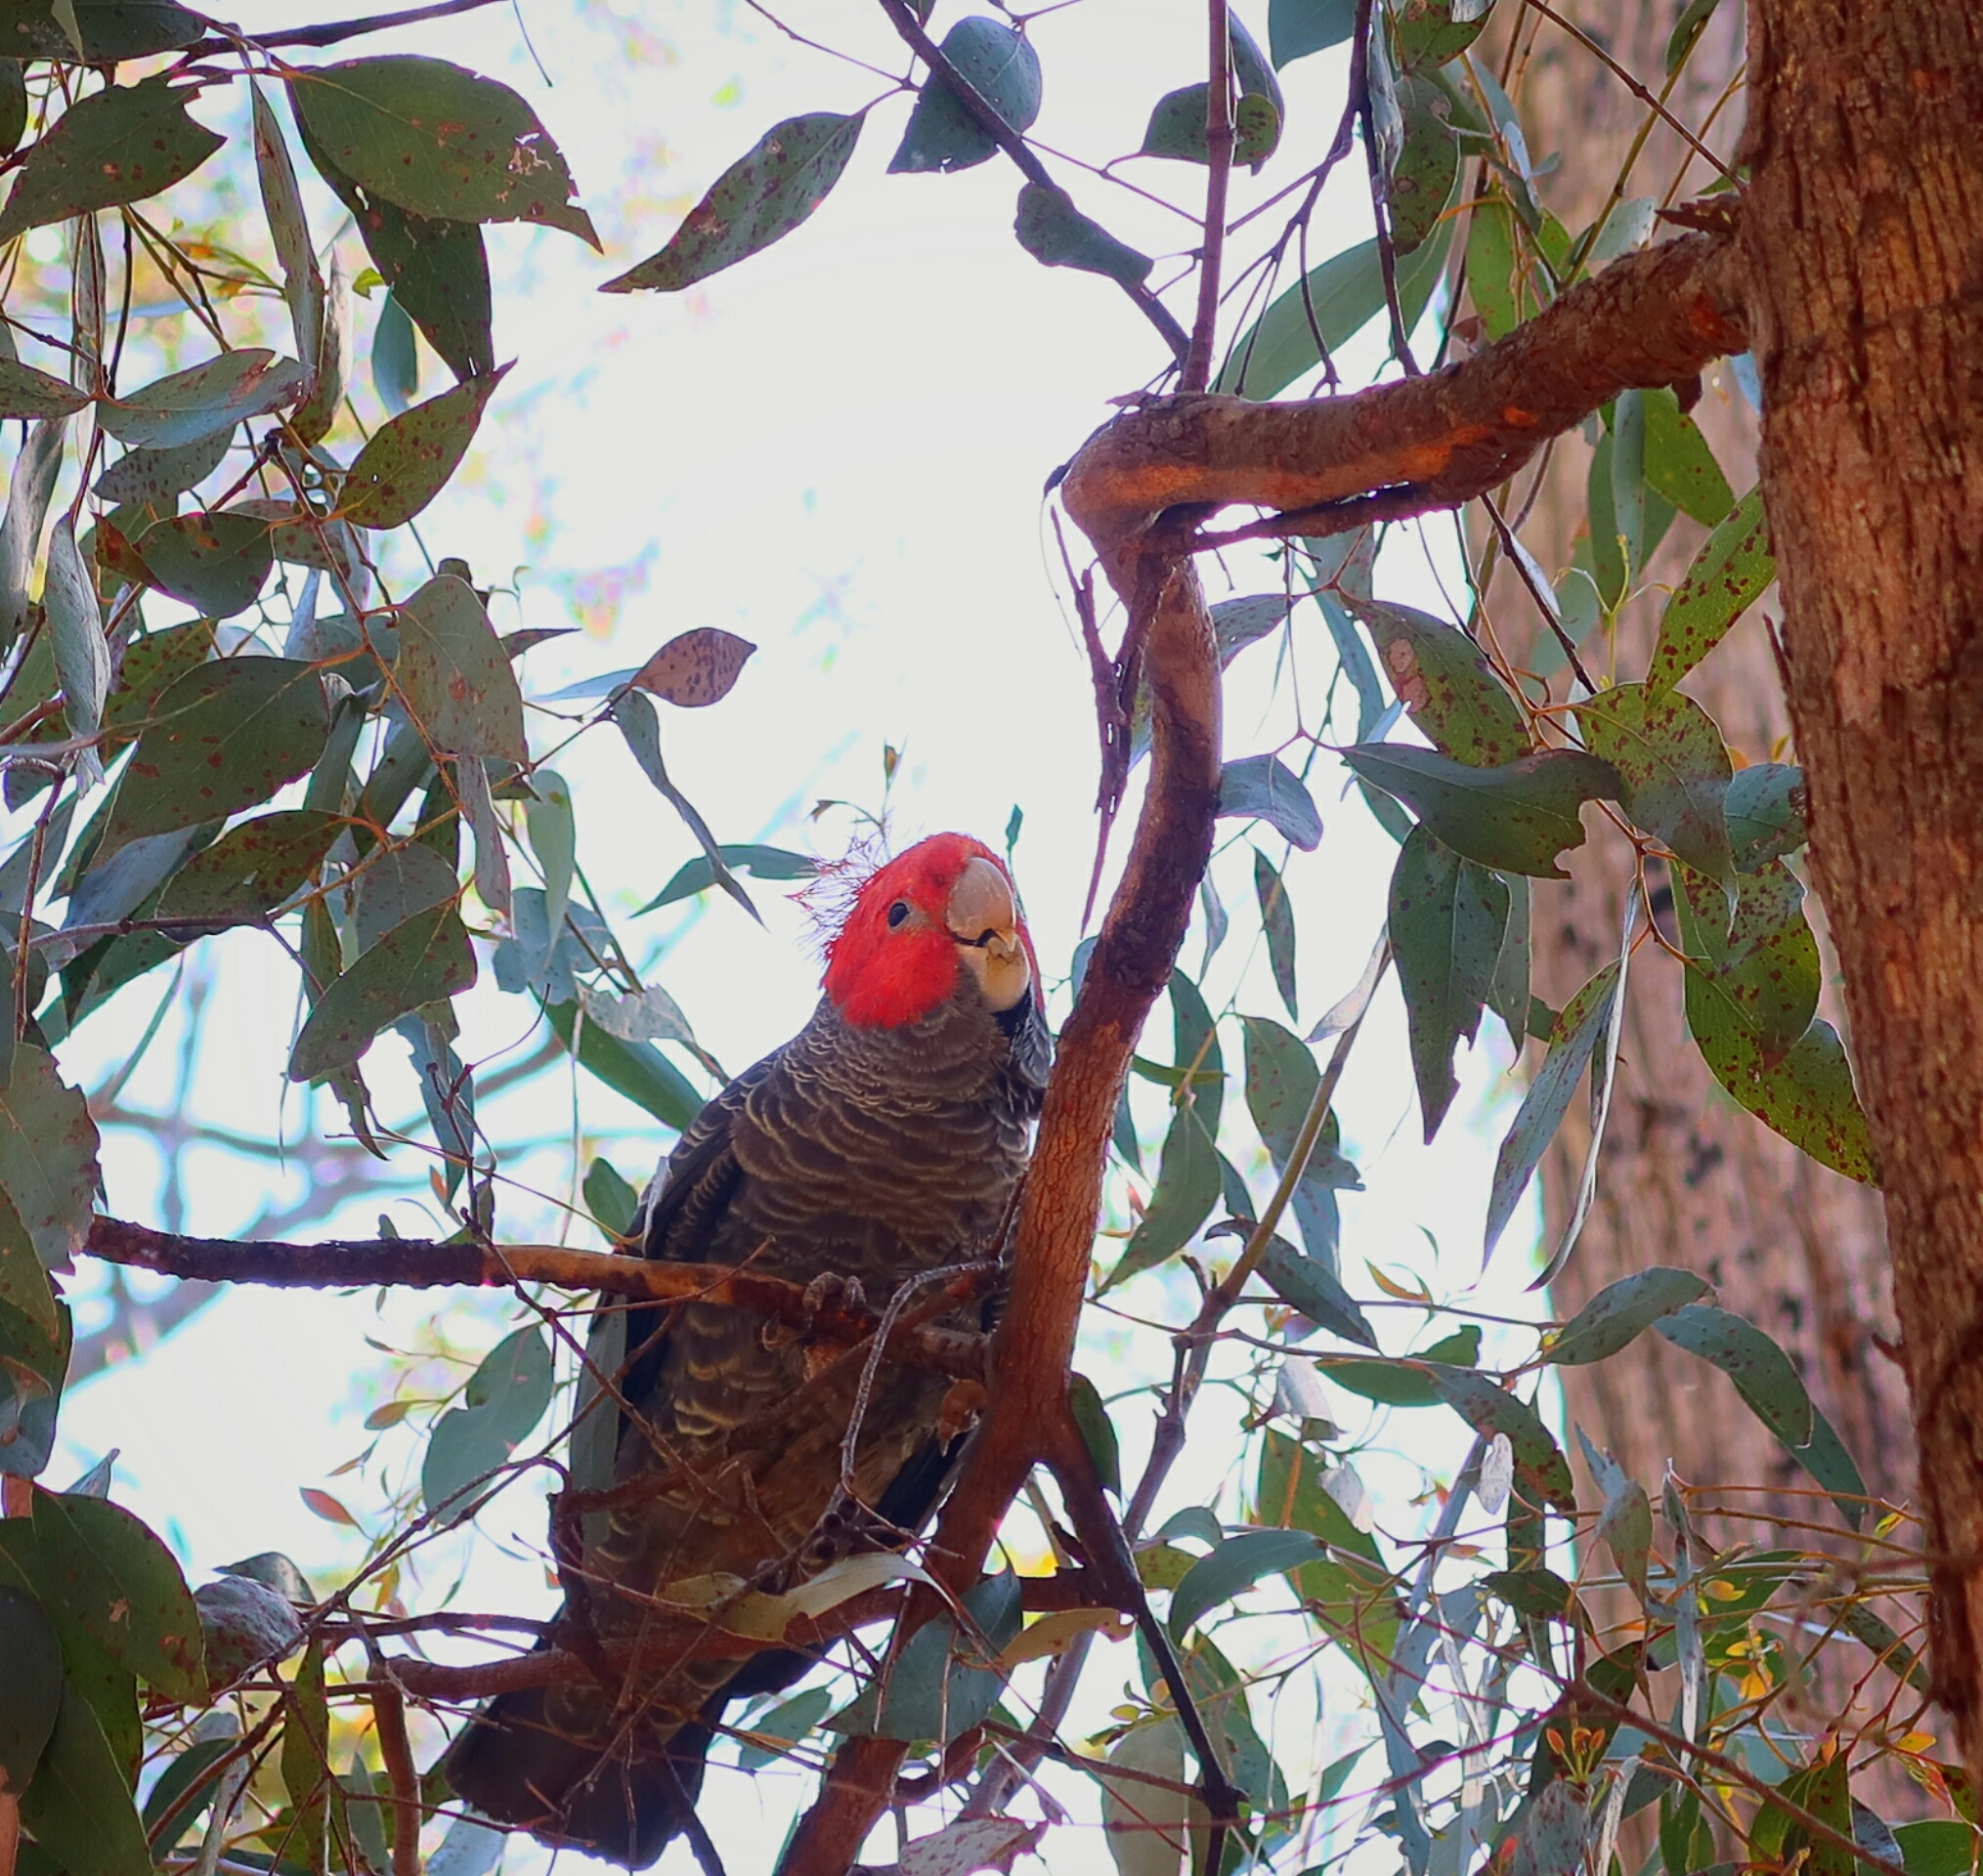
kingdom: Animalia
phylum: Chordata
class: Aves
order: Psittaciformes
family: Psittacidae
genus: Callocephalon
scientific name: Callocephalon fimbriatum
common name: Gang-gang cockatoo
